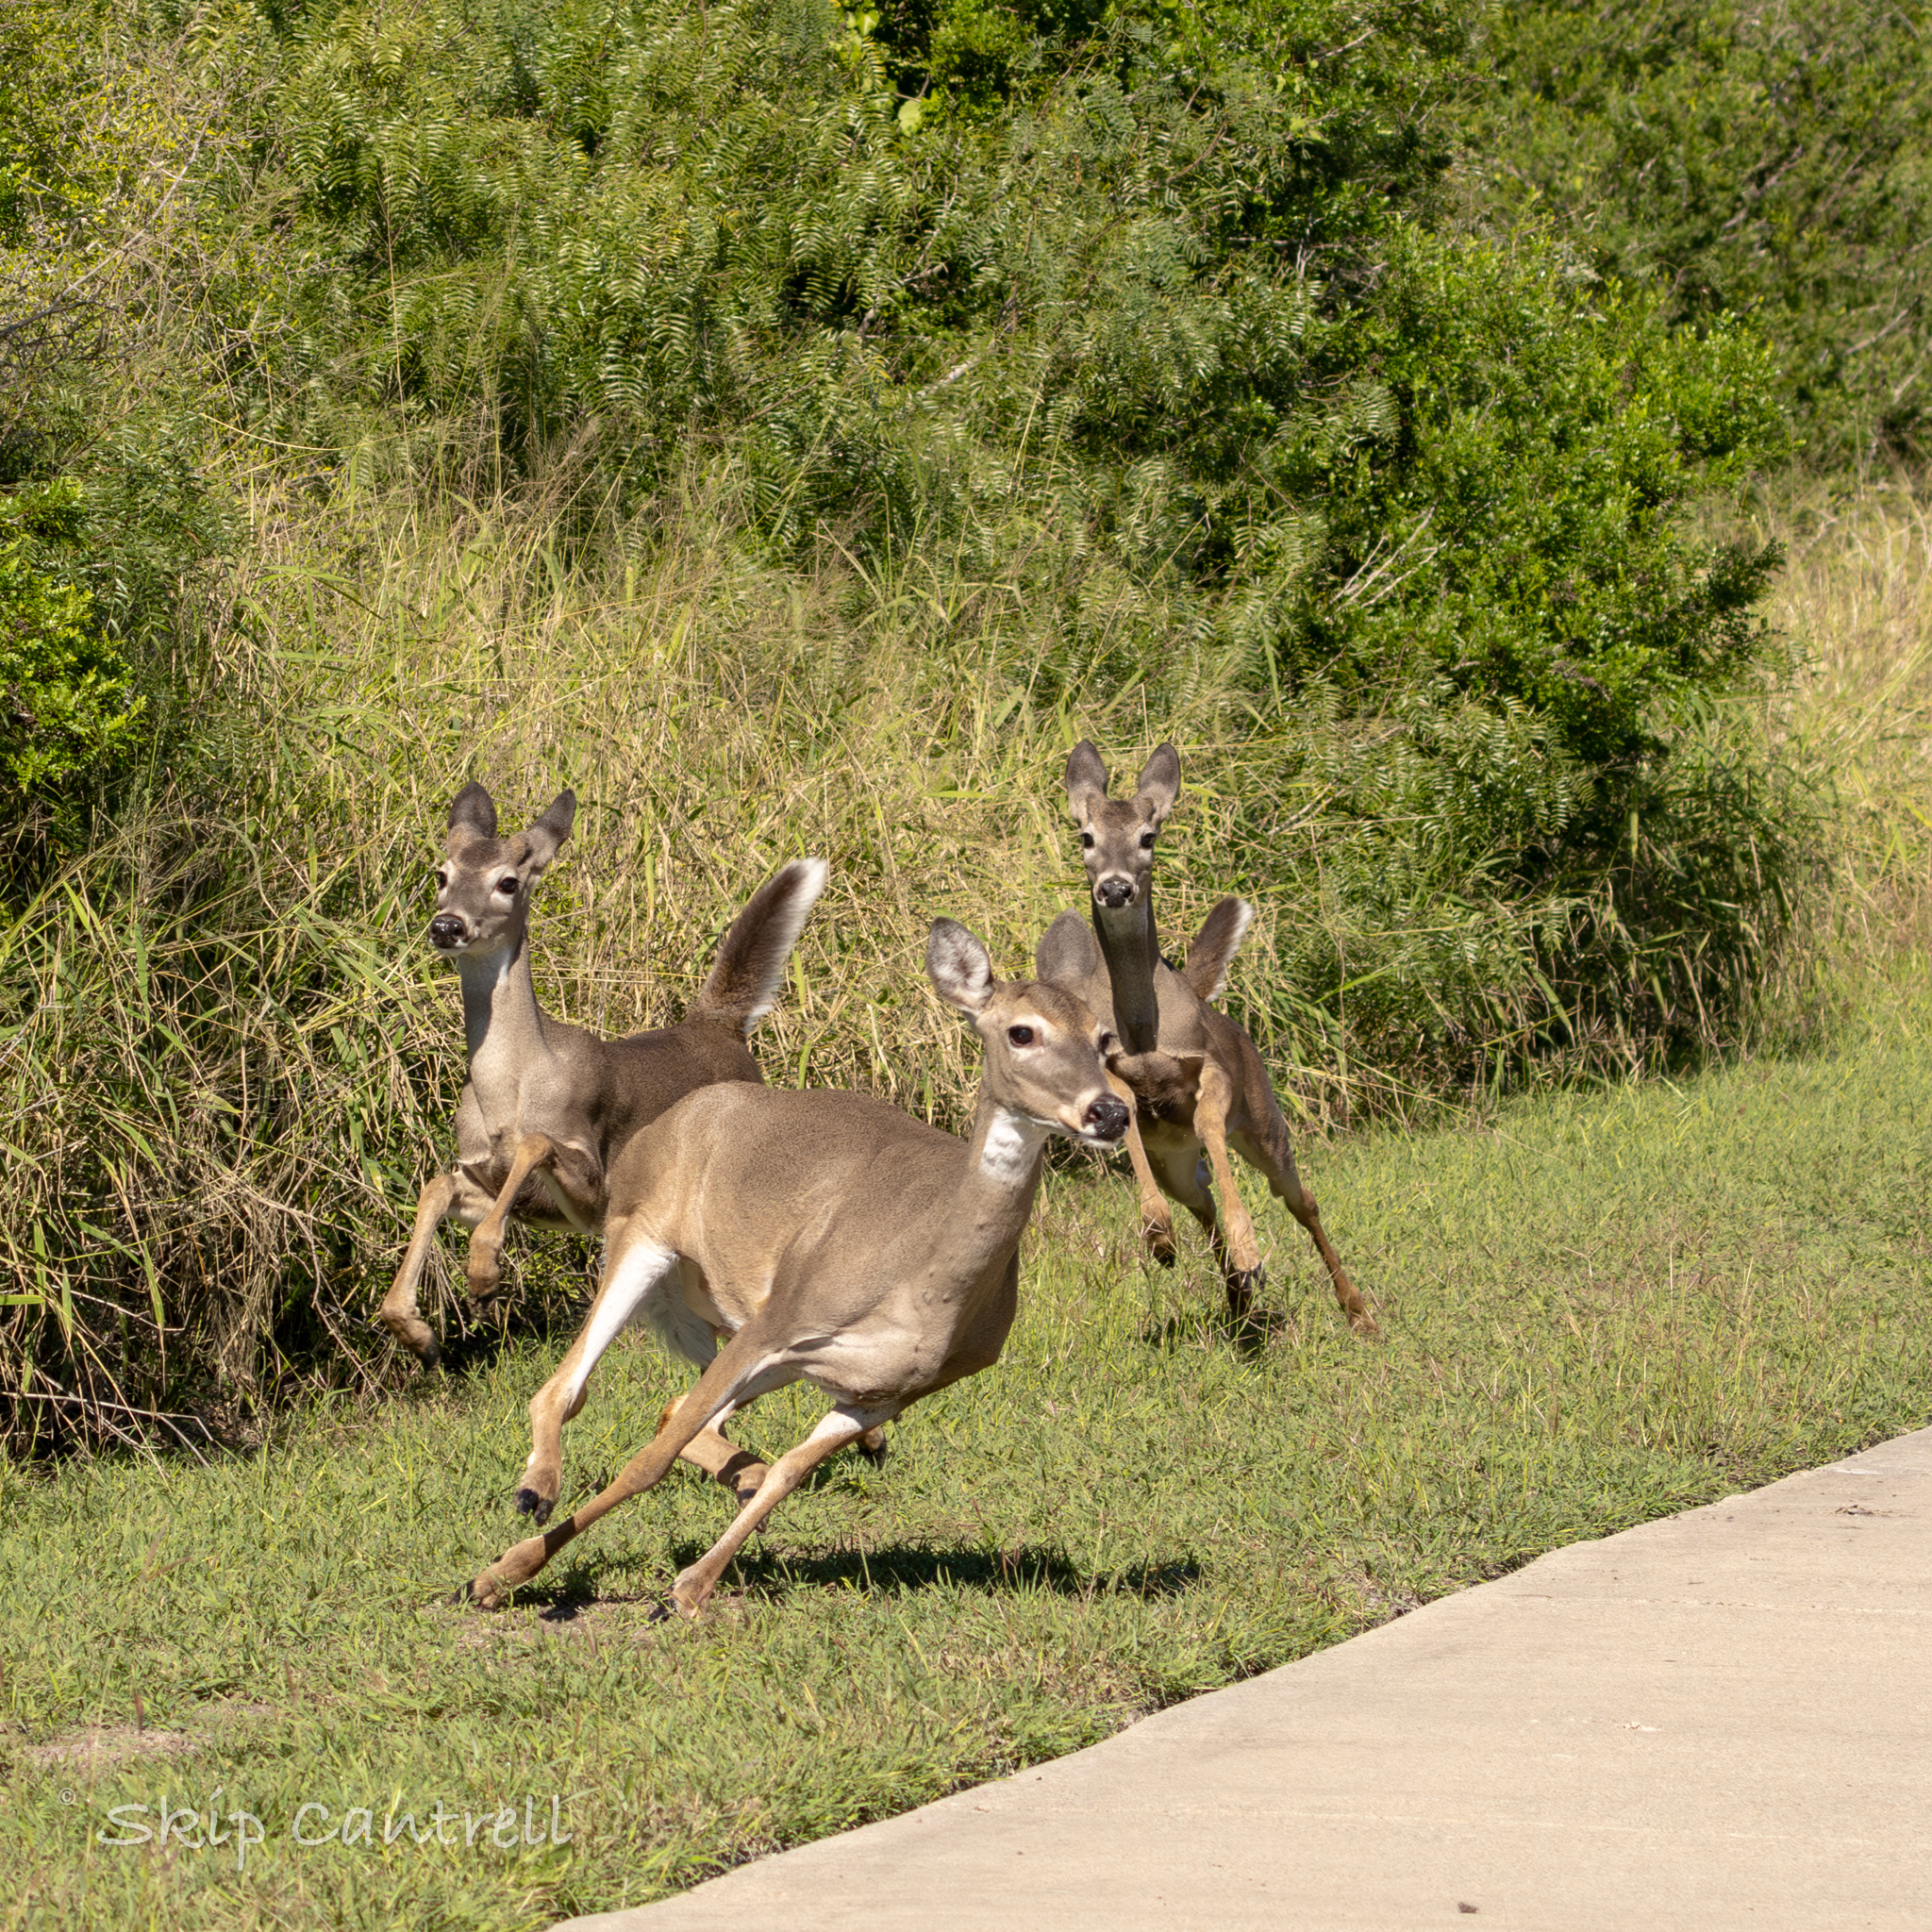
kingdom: Animalia
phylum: Chordata
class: Mammalia
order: Artiodactyla
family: Cervidae
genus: Odocoileus
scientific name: Odocoileus virginianus
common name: White-tailed deer
